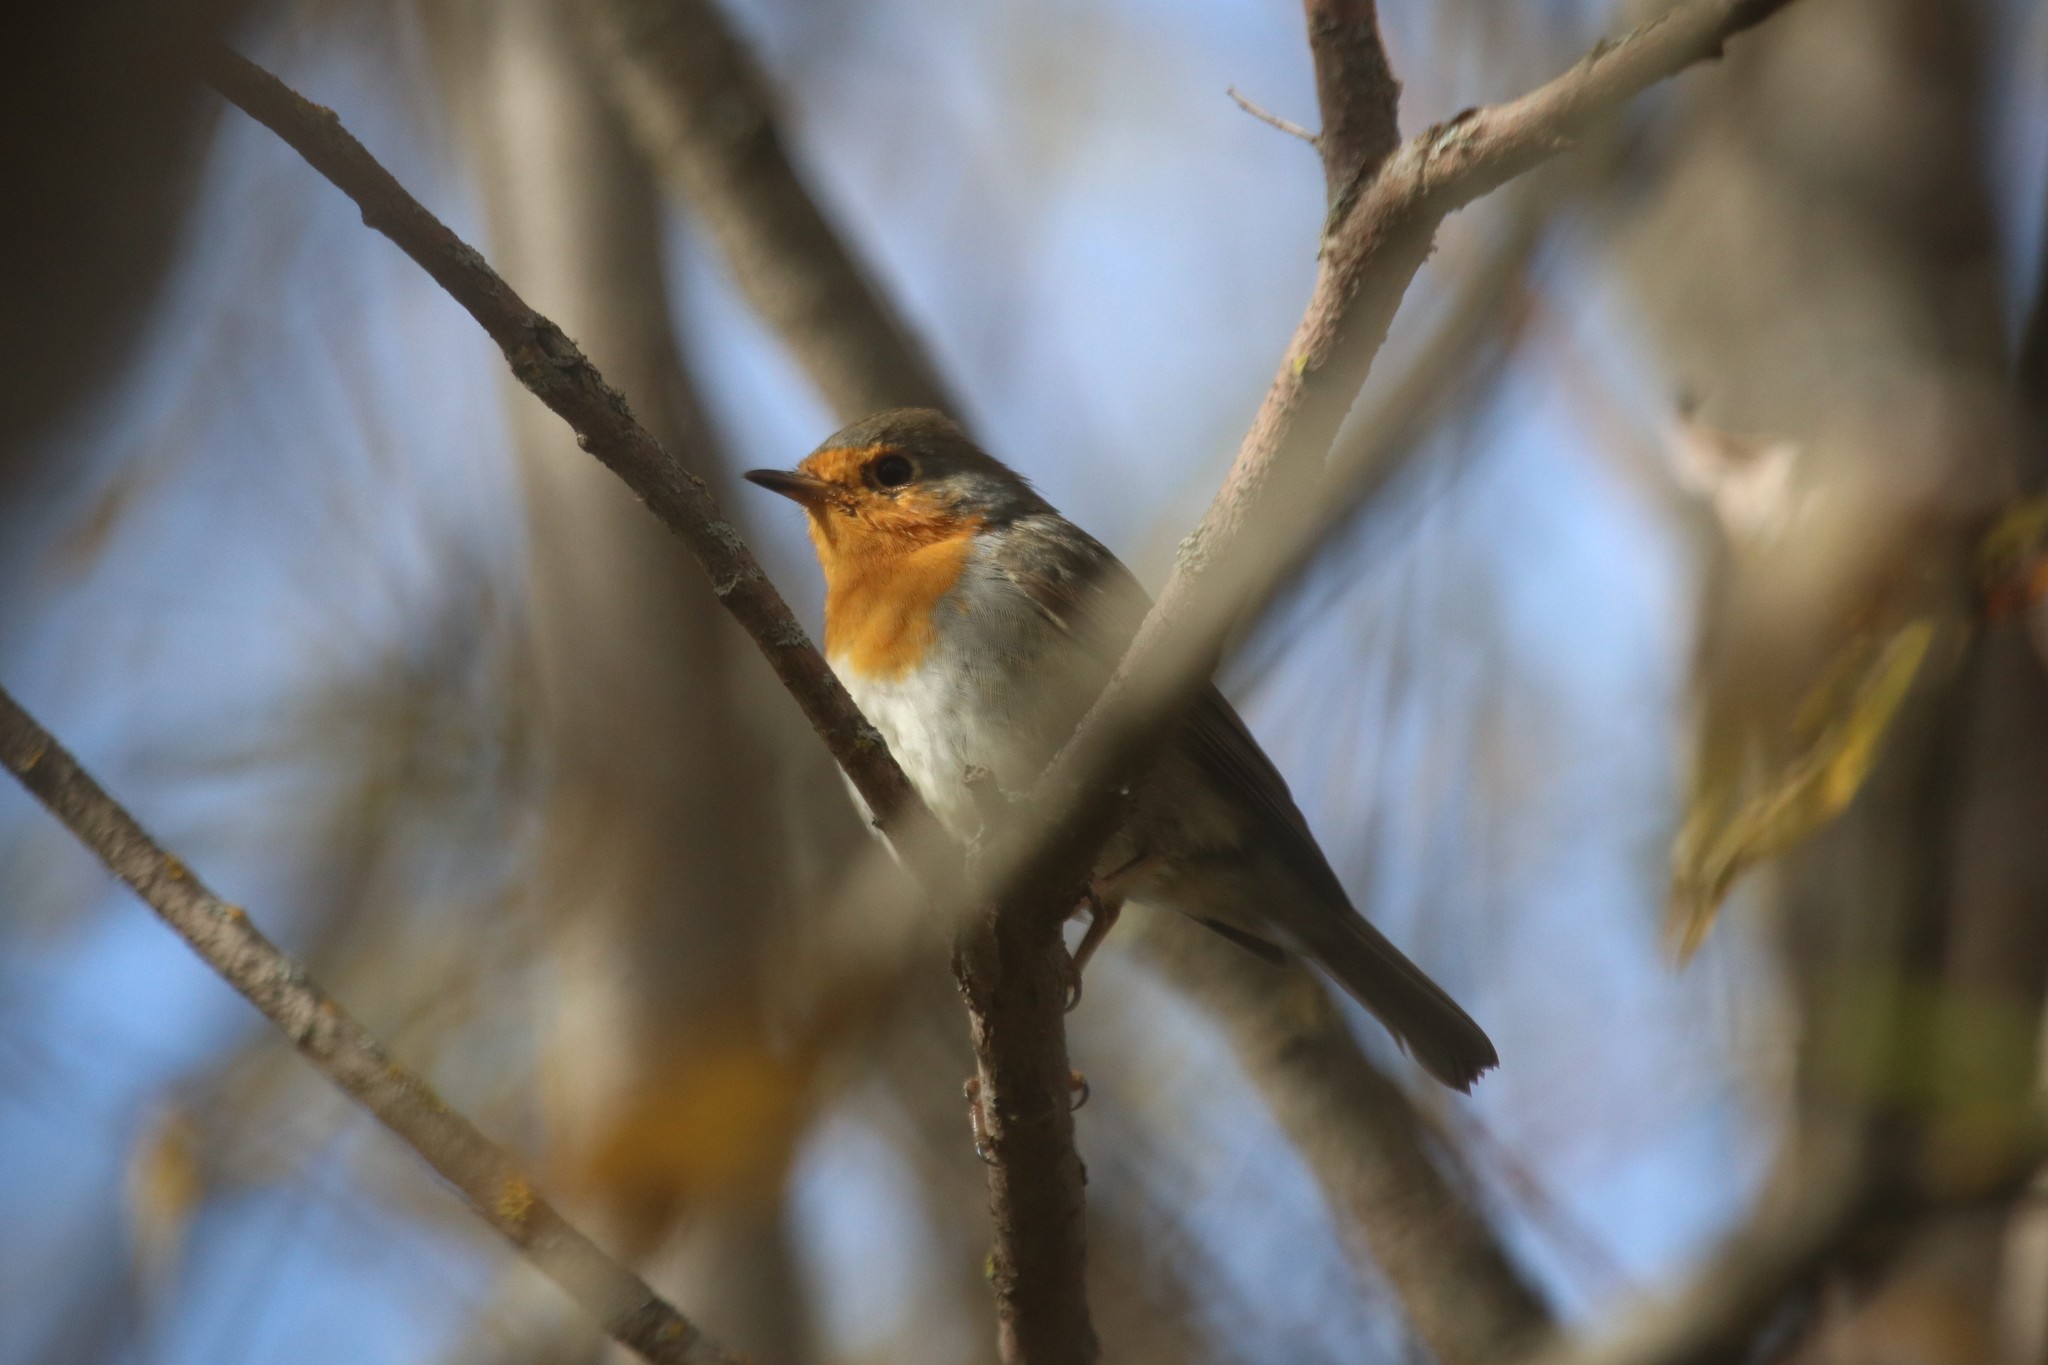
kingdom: Animalia
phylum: Chordata
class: Aves
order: Passeriformes
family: Muscicapidae
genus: Erithacus
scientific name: Erithacus rubecula
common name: European robin
